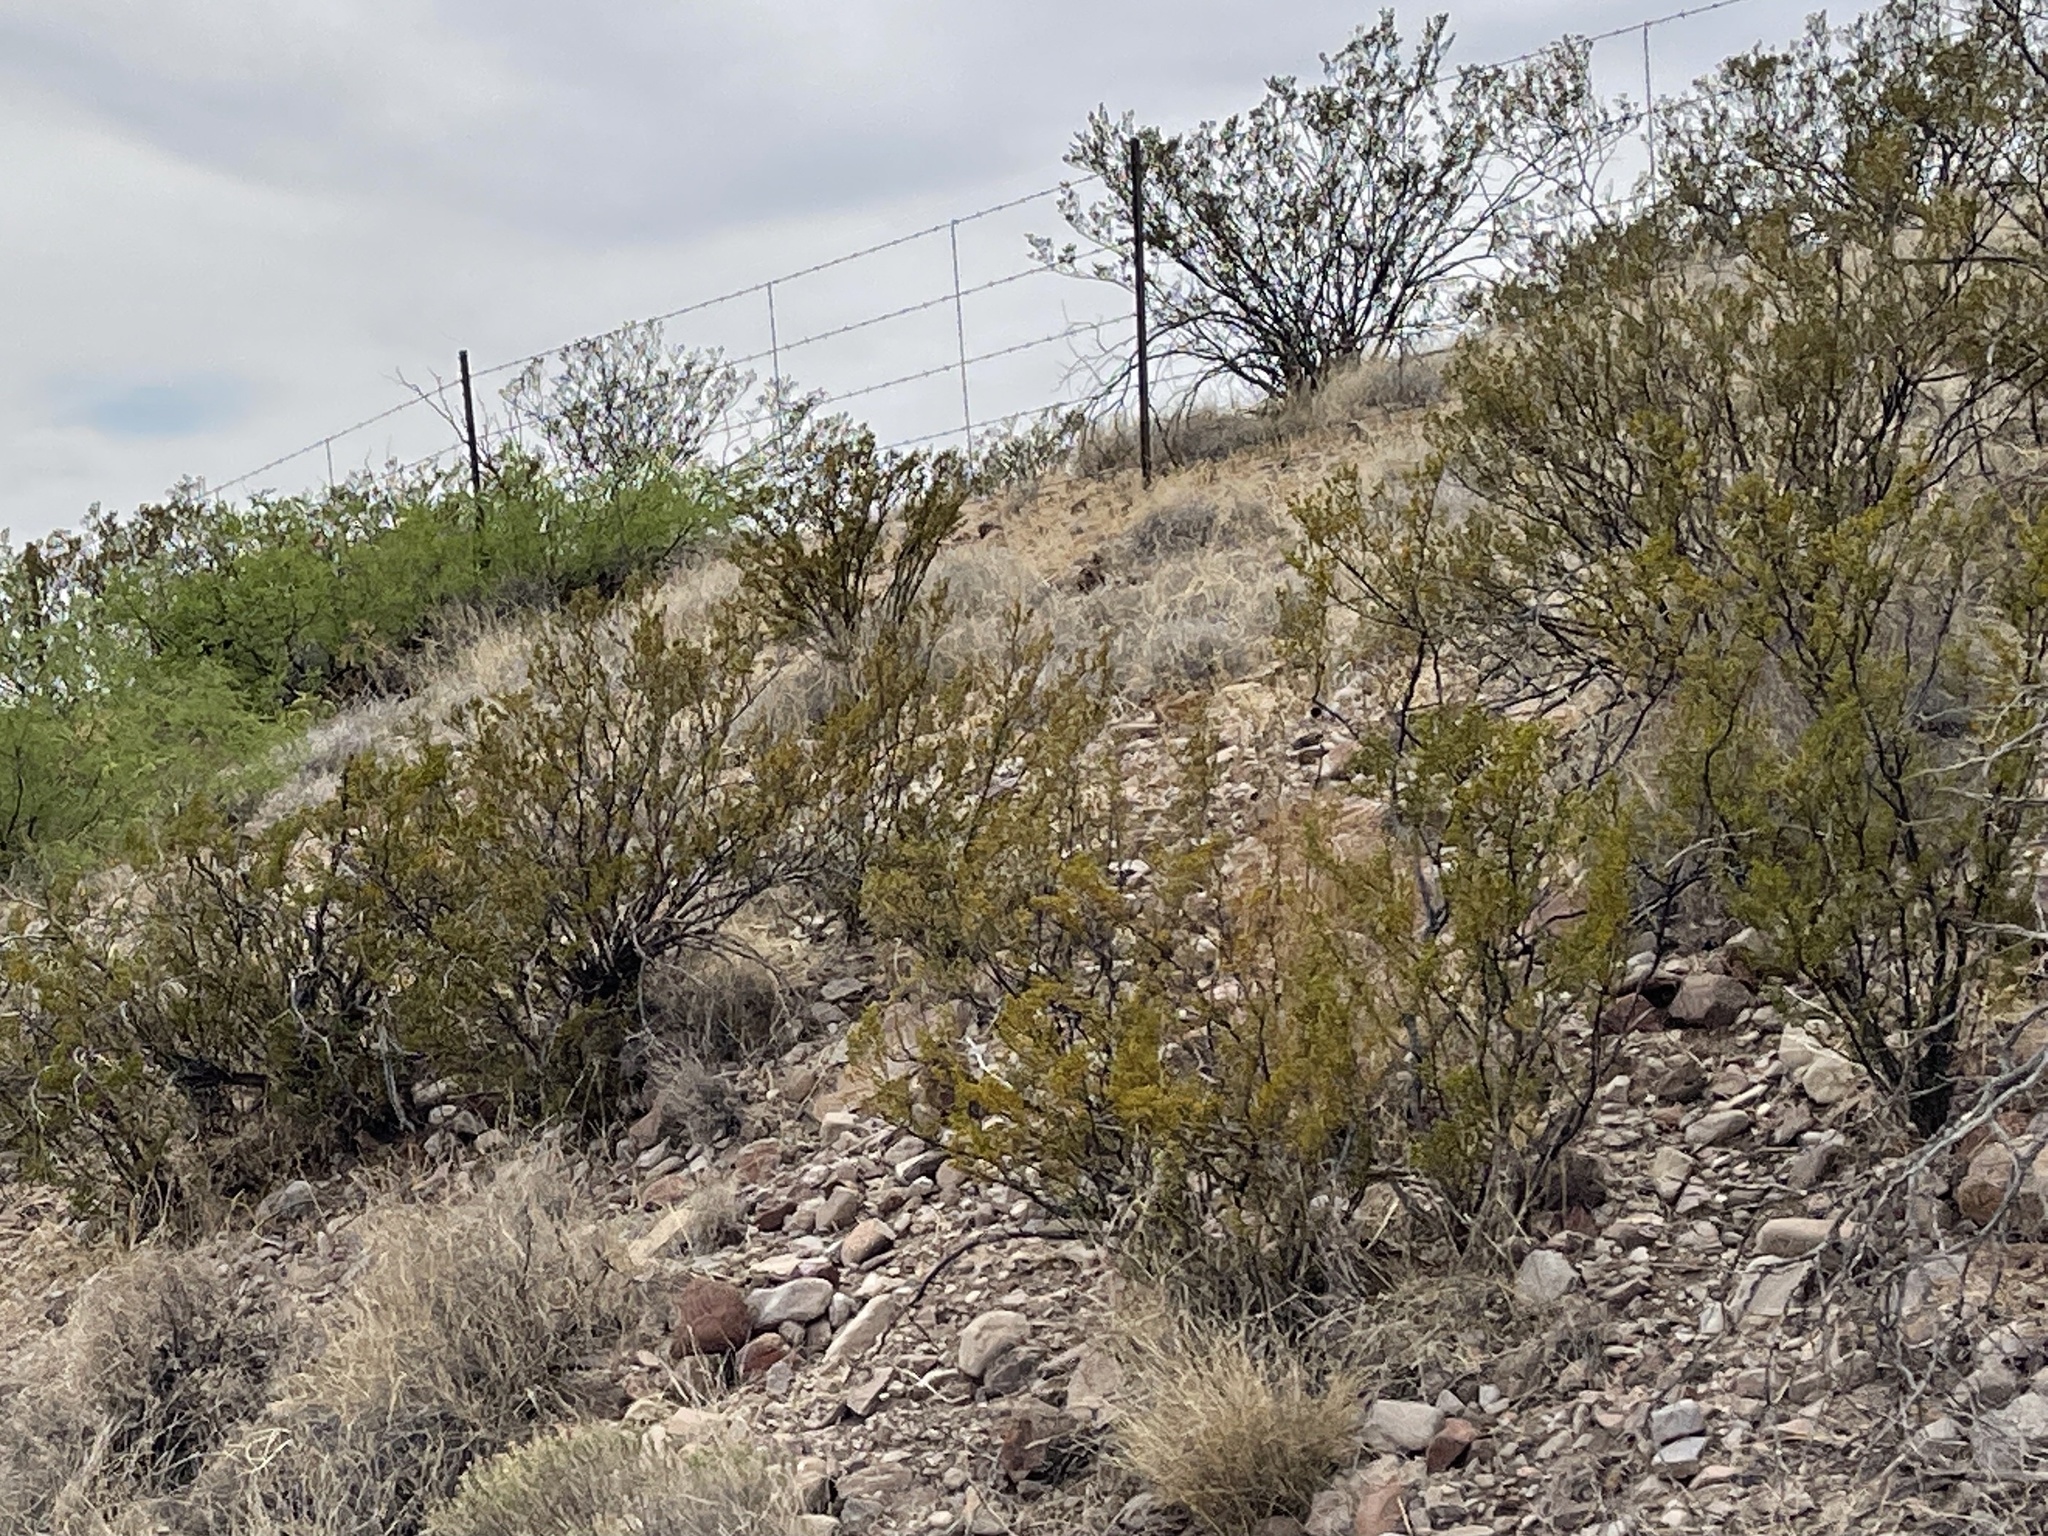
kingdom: Plantae
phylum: Tracheophyta
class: Magnoliopsida
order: Zygophyllales
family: Zygophyllaceae
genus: Larrea
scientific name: Larrea tridentata
